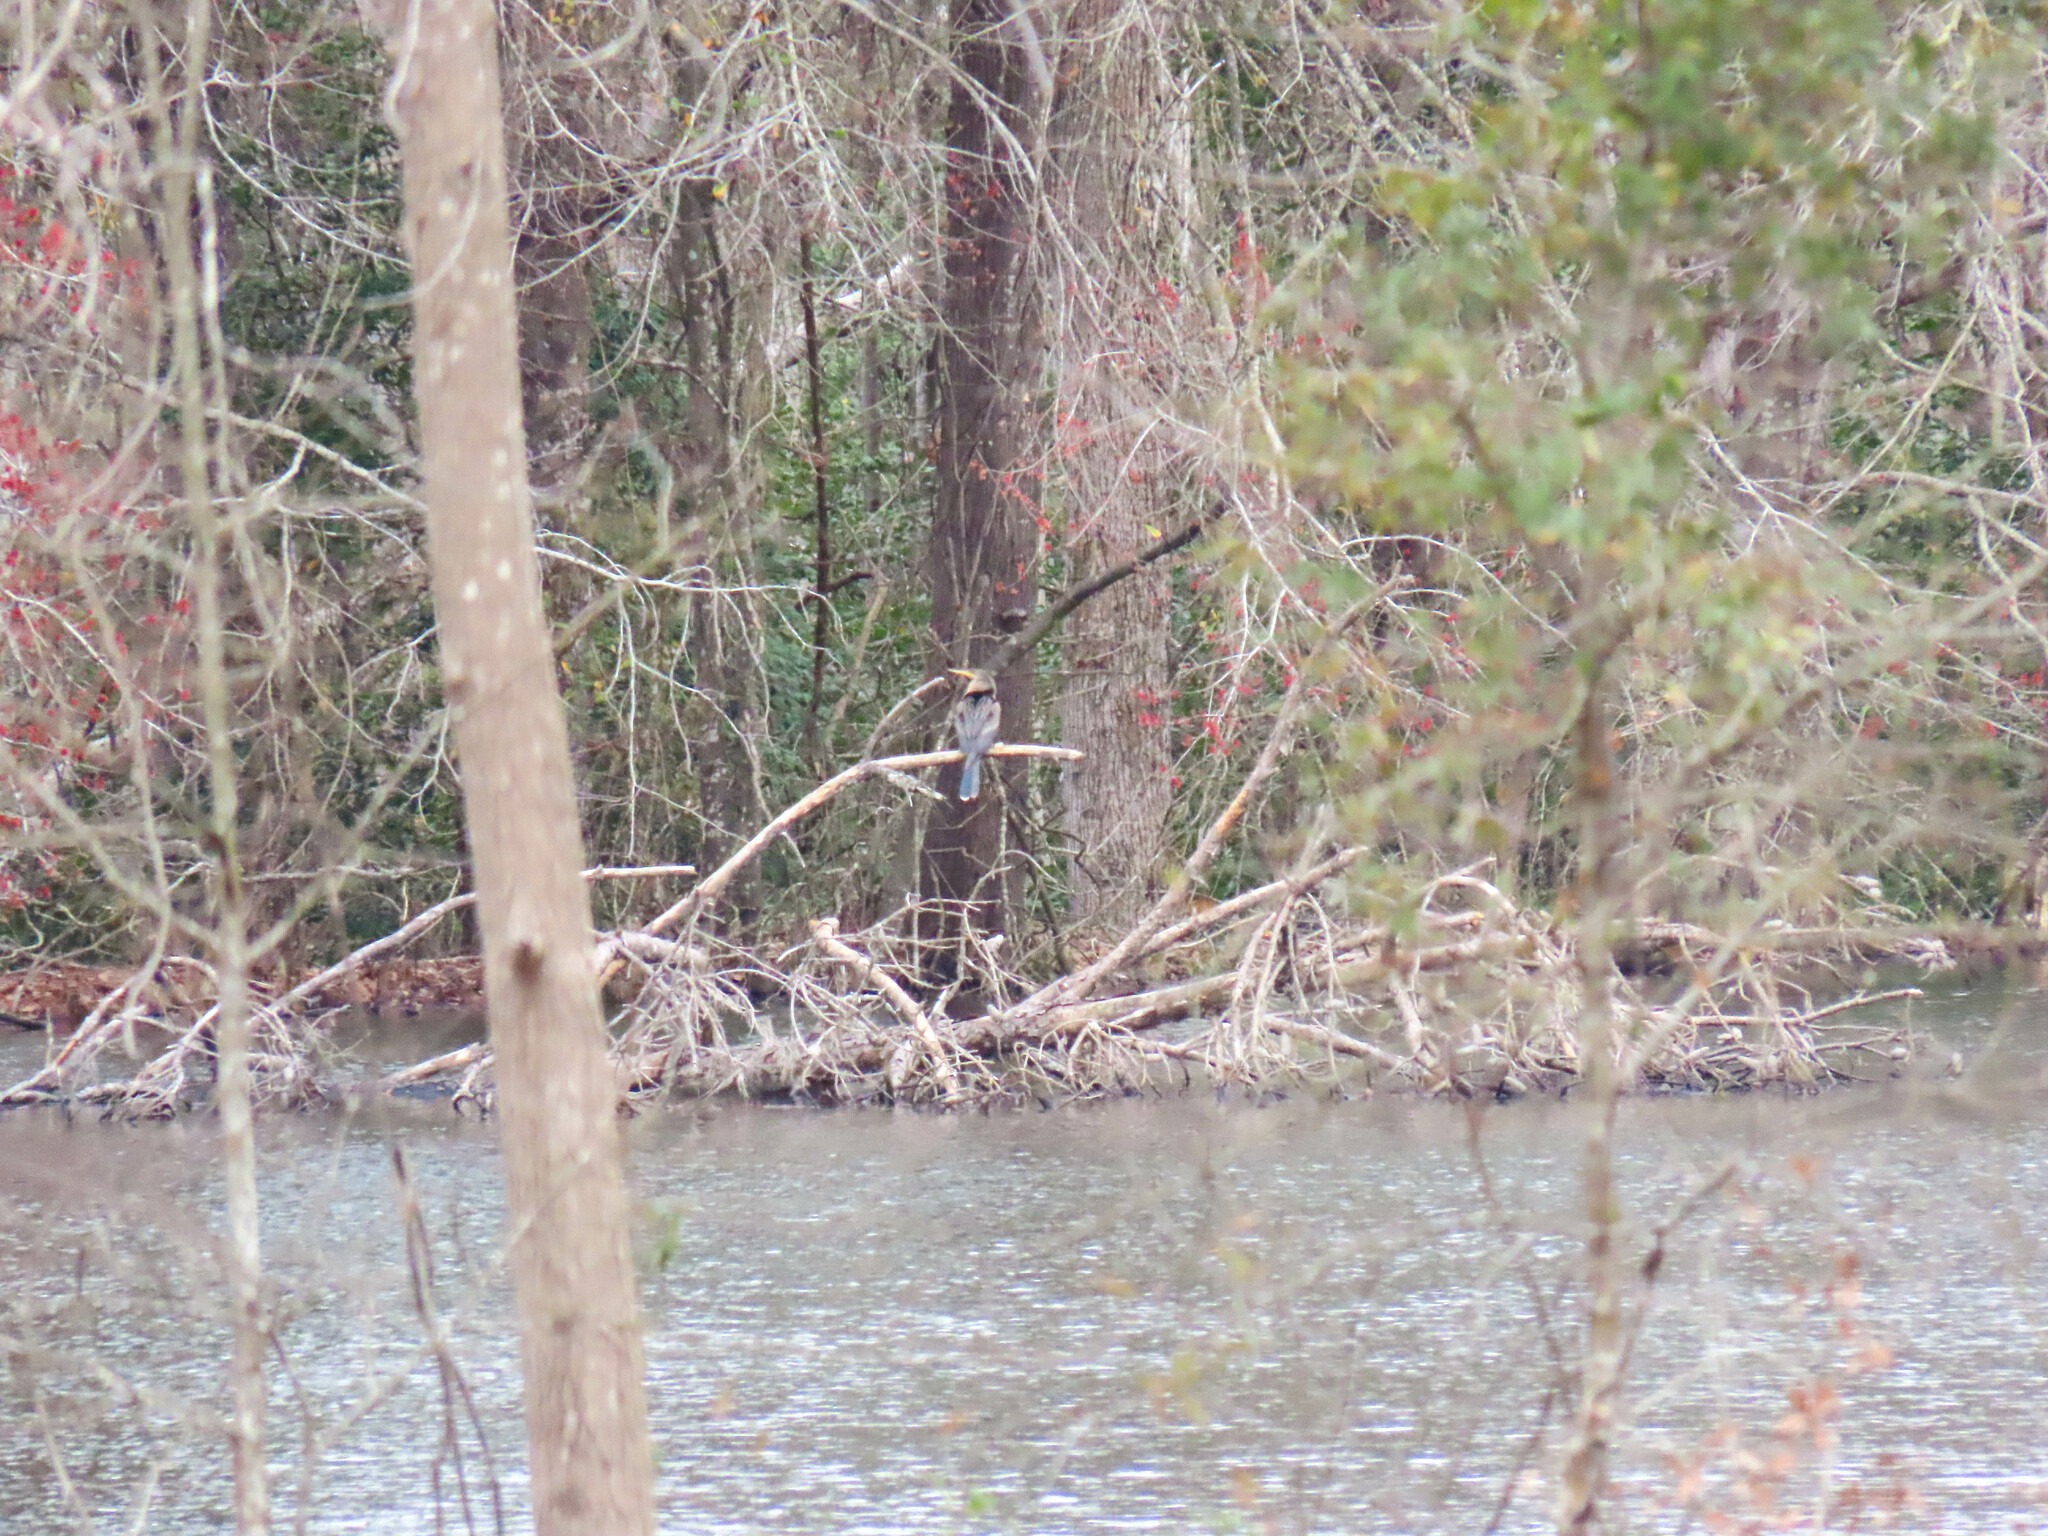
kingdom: Animalia
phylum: Chordata
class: Aves
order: Suliformes
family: Anhingidae
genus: Anhinga
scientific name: Anhinga anhinga
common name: Anhinga
